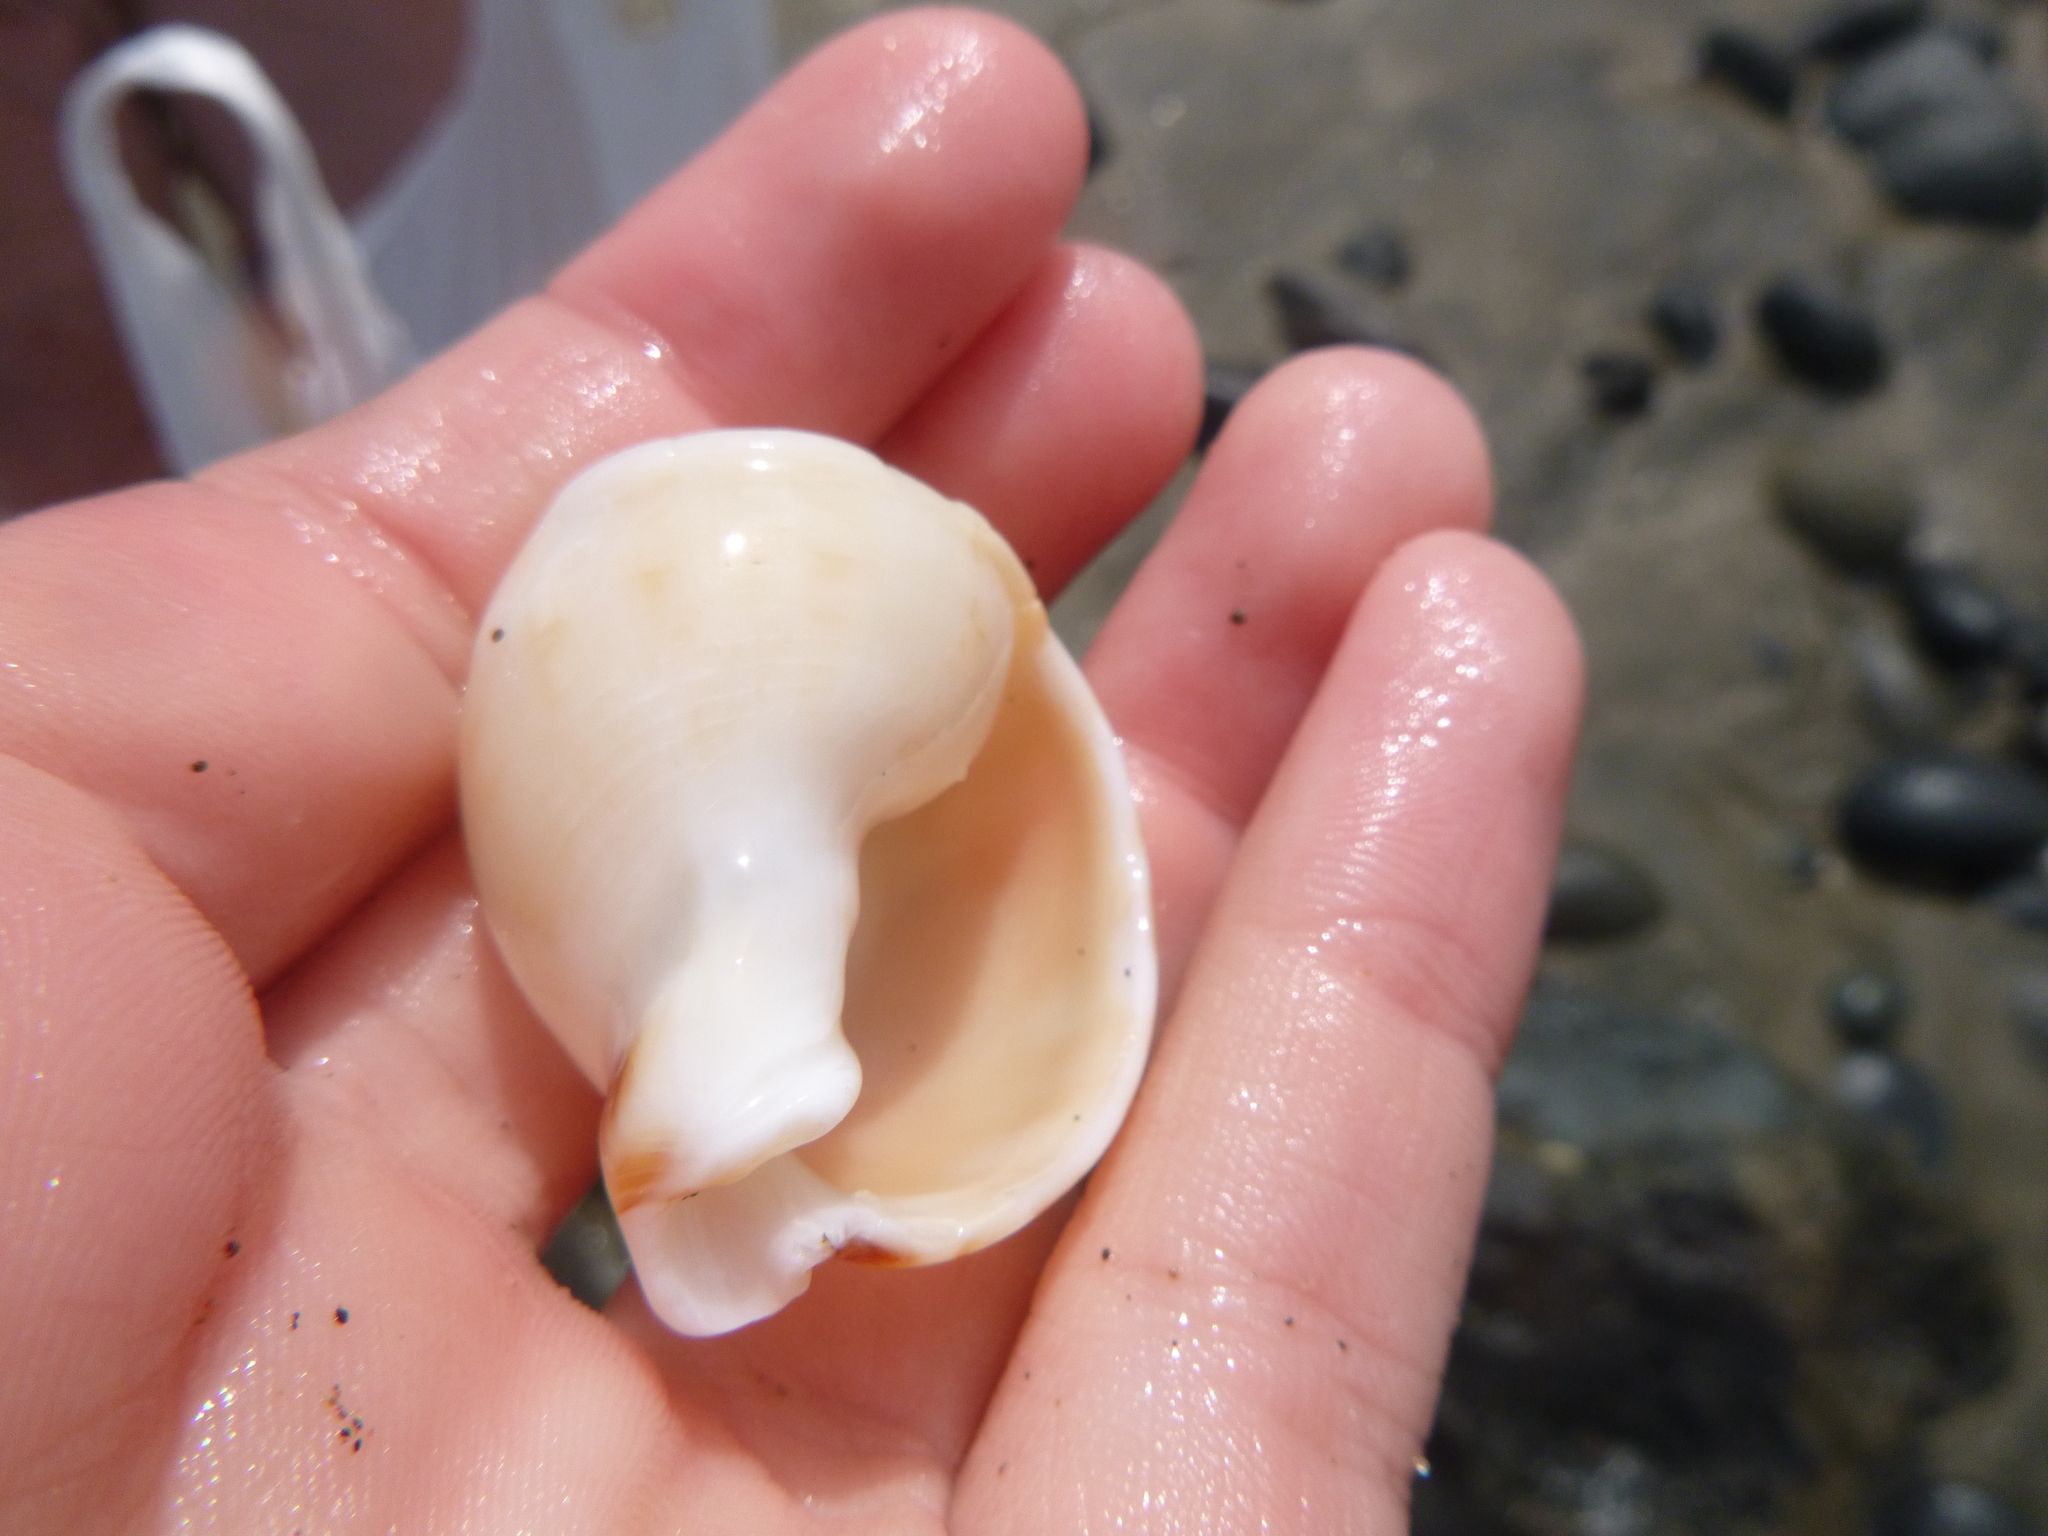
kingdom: Animalia
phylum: Mollusca
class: Gastropoda
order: Littorinimorpha
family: Cassidae
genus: Semicassis
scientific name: Semicassis pyrum
